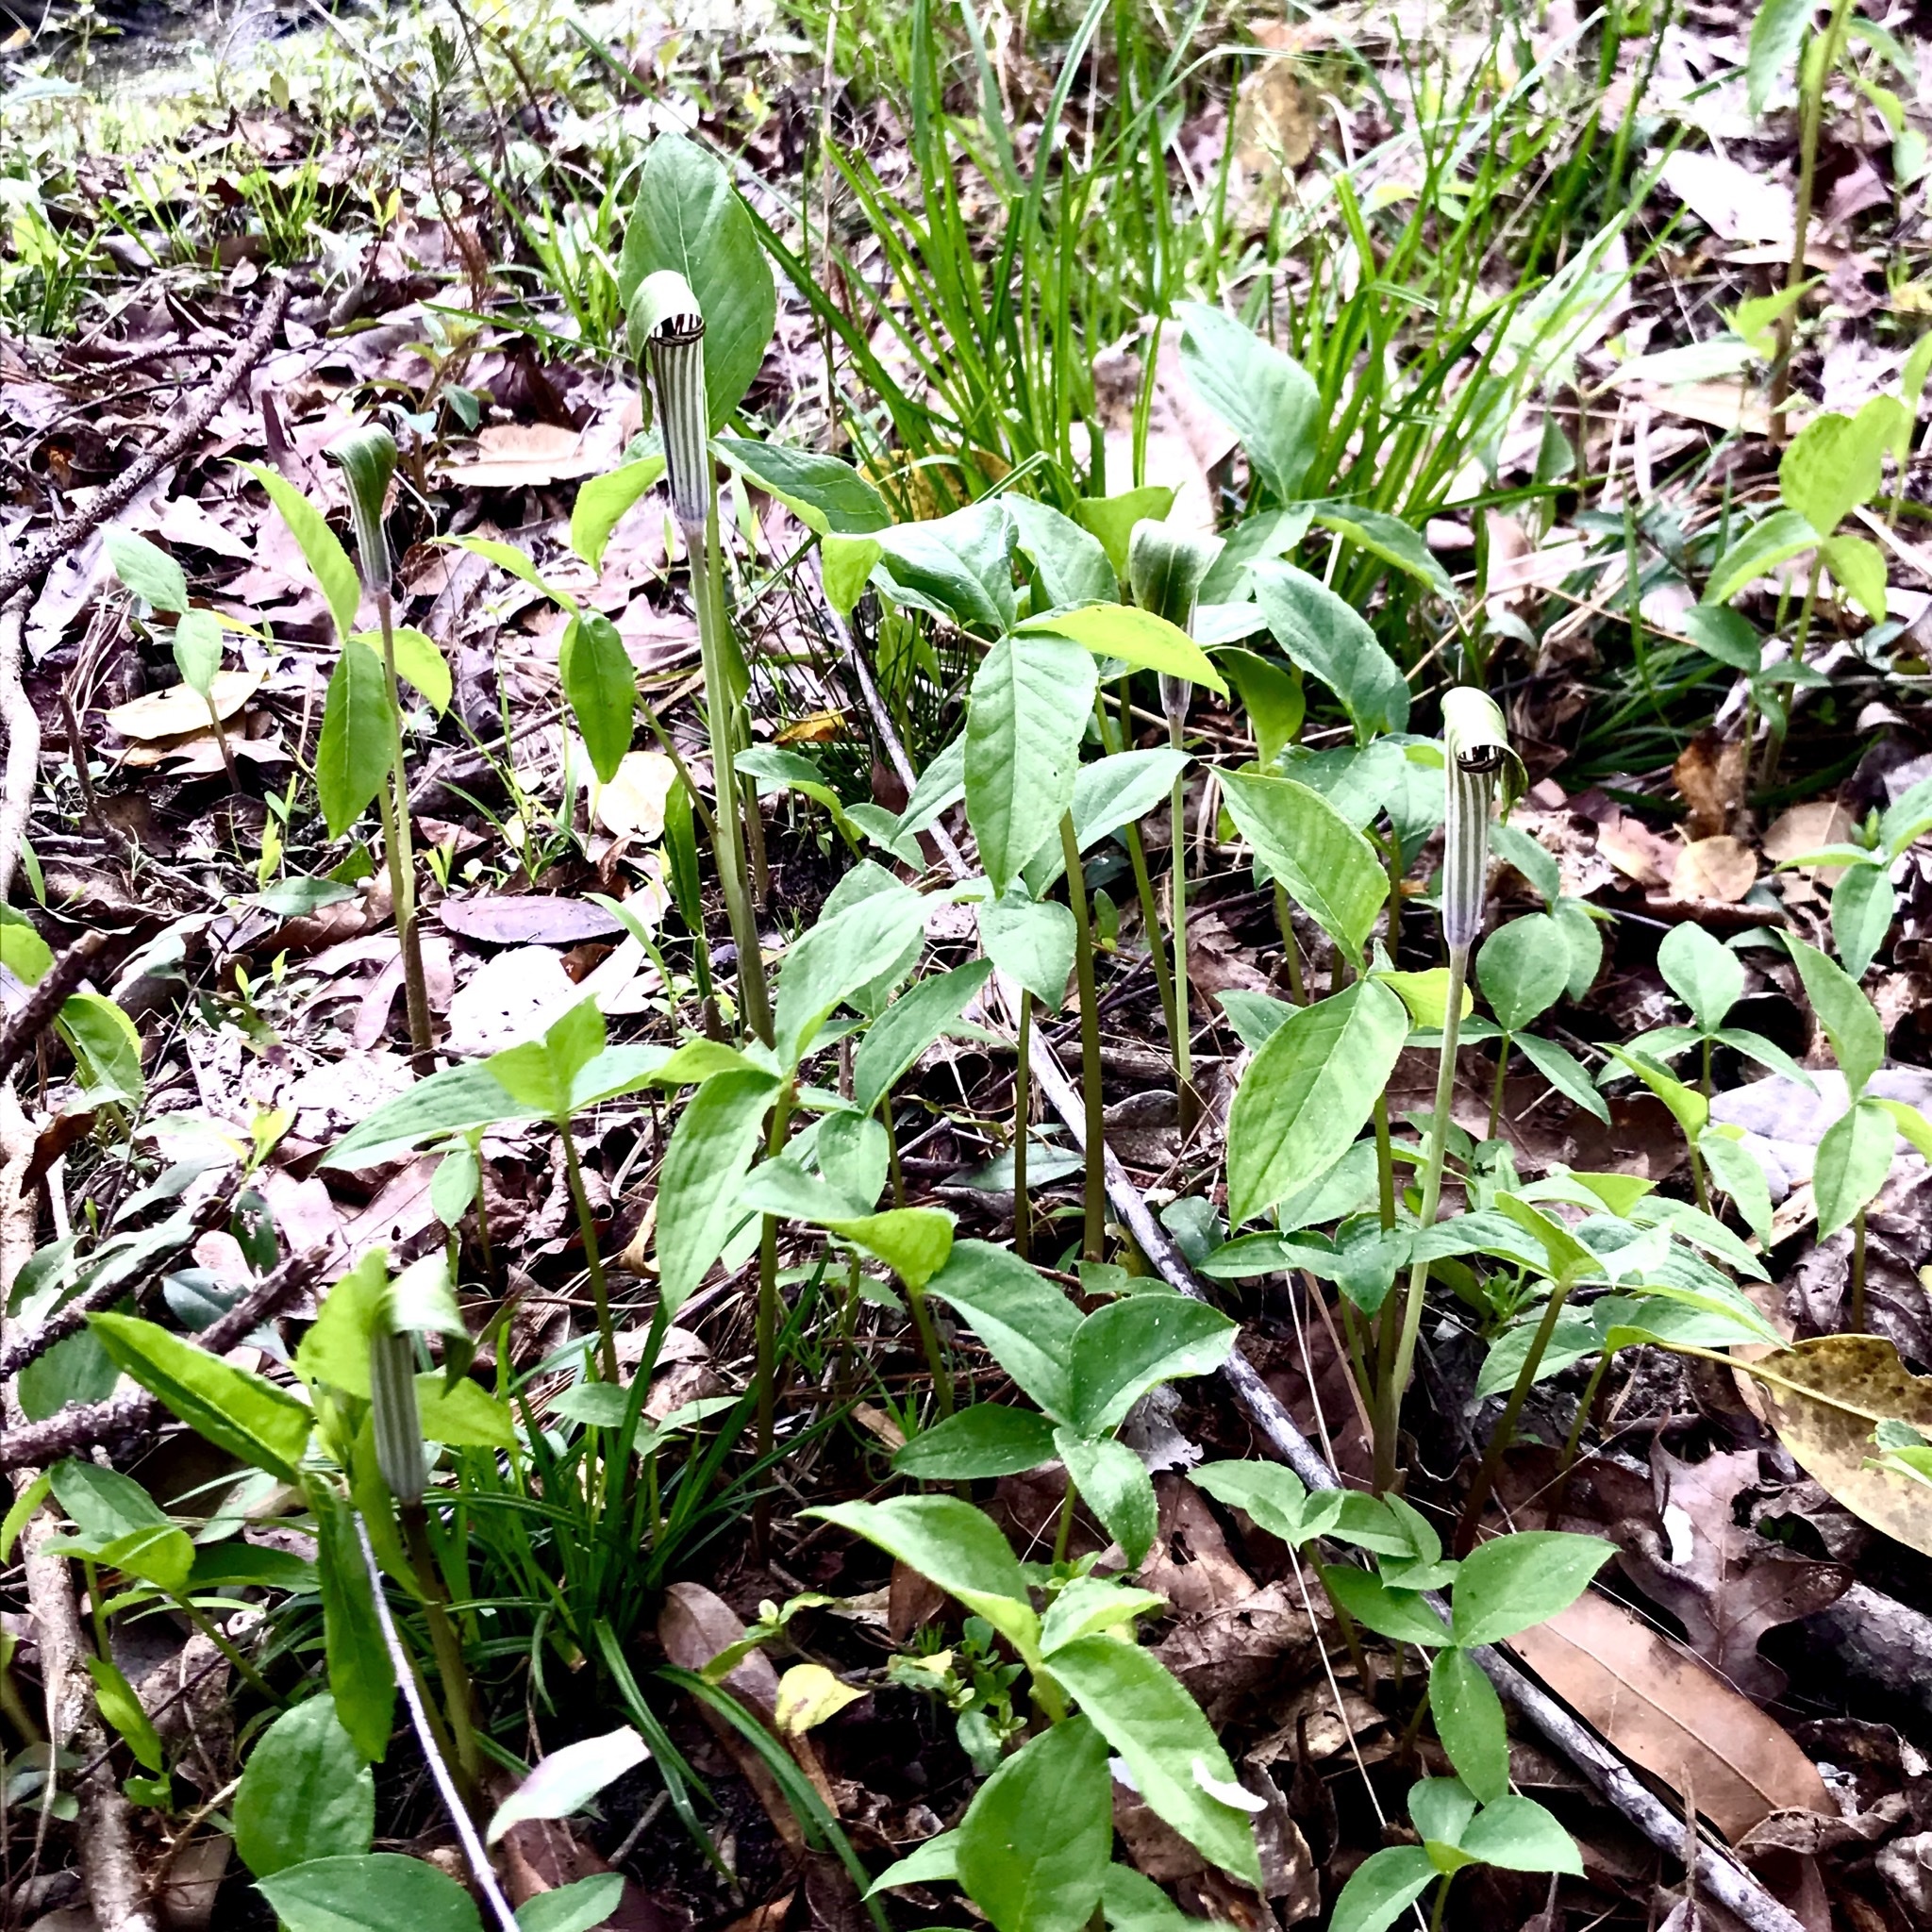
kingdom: Plantae
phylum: Tracheophyta
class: Liliopsida
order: Alismatales
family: Araceae
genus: Arisaema
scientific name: Arisaema triphyllum
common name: Jack-in-the-pulpit
